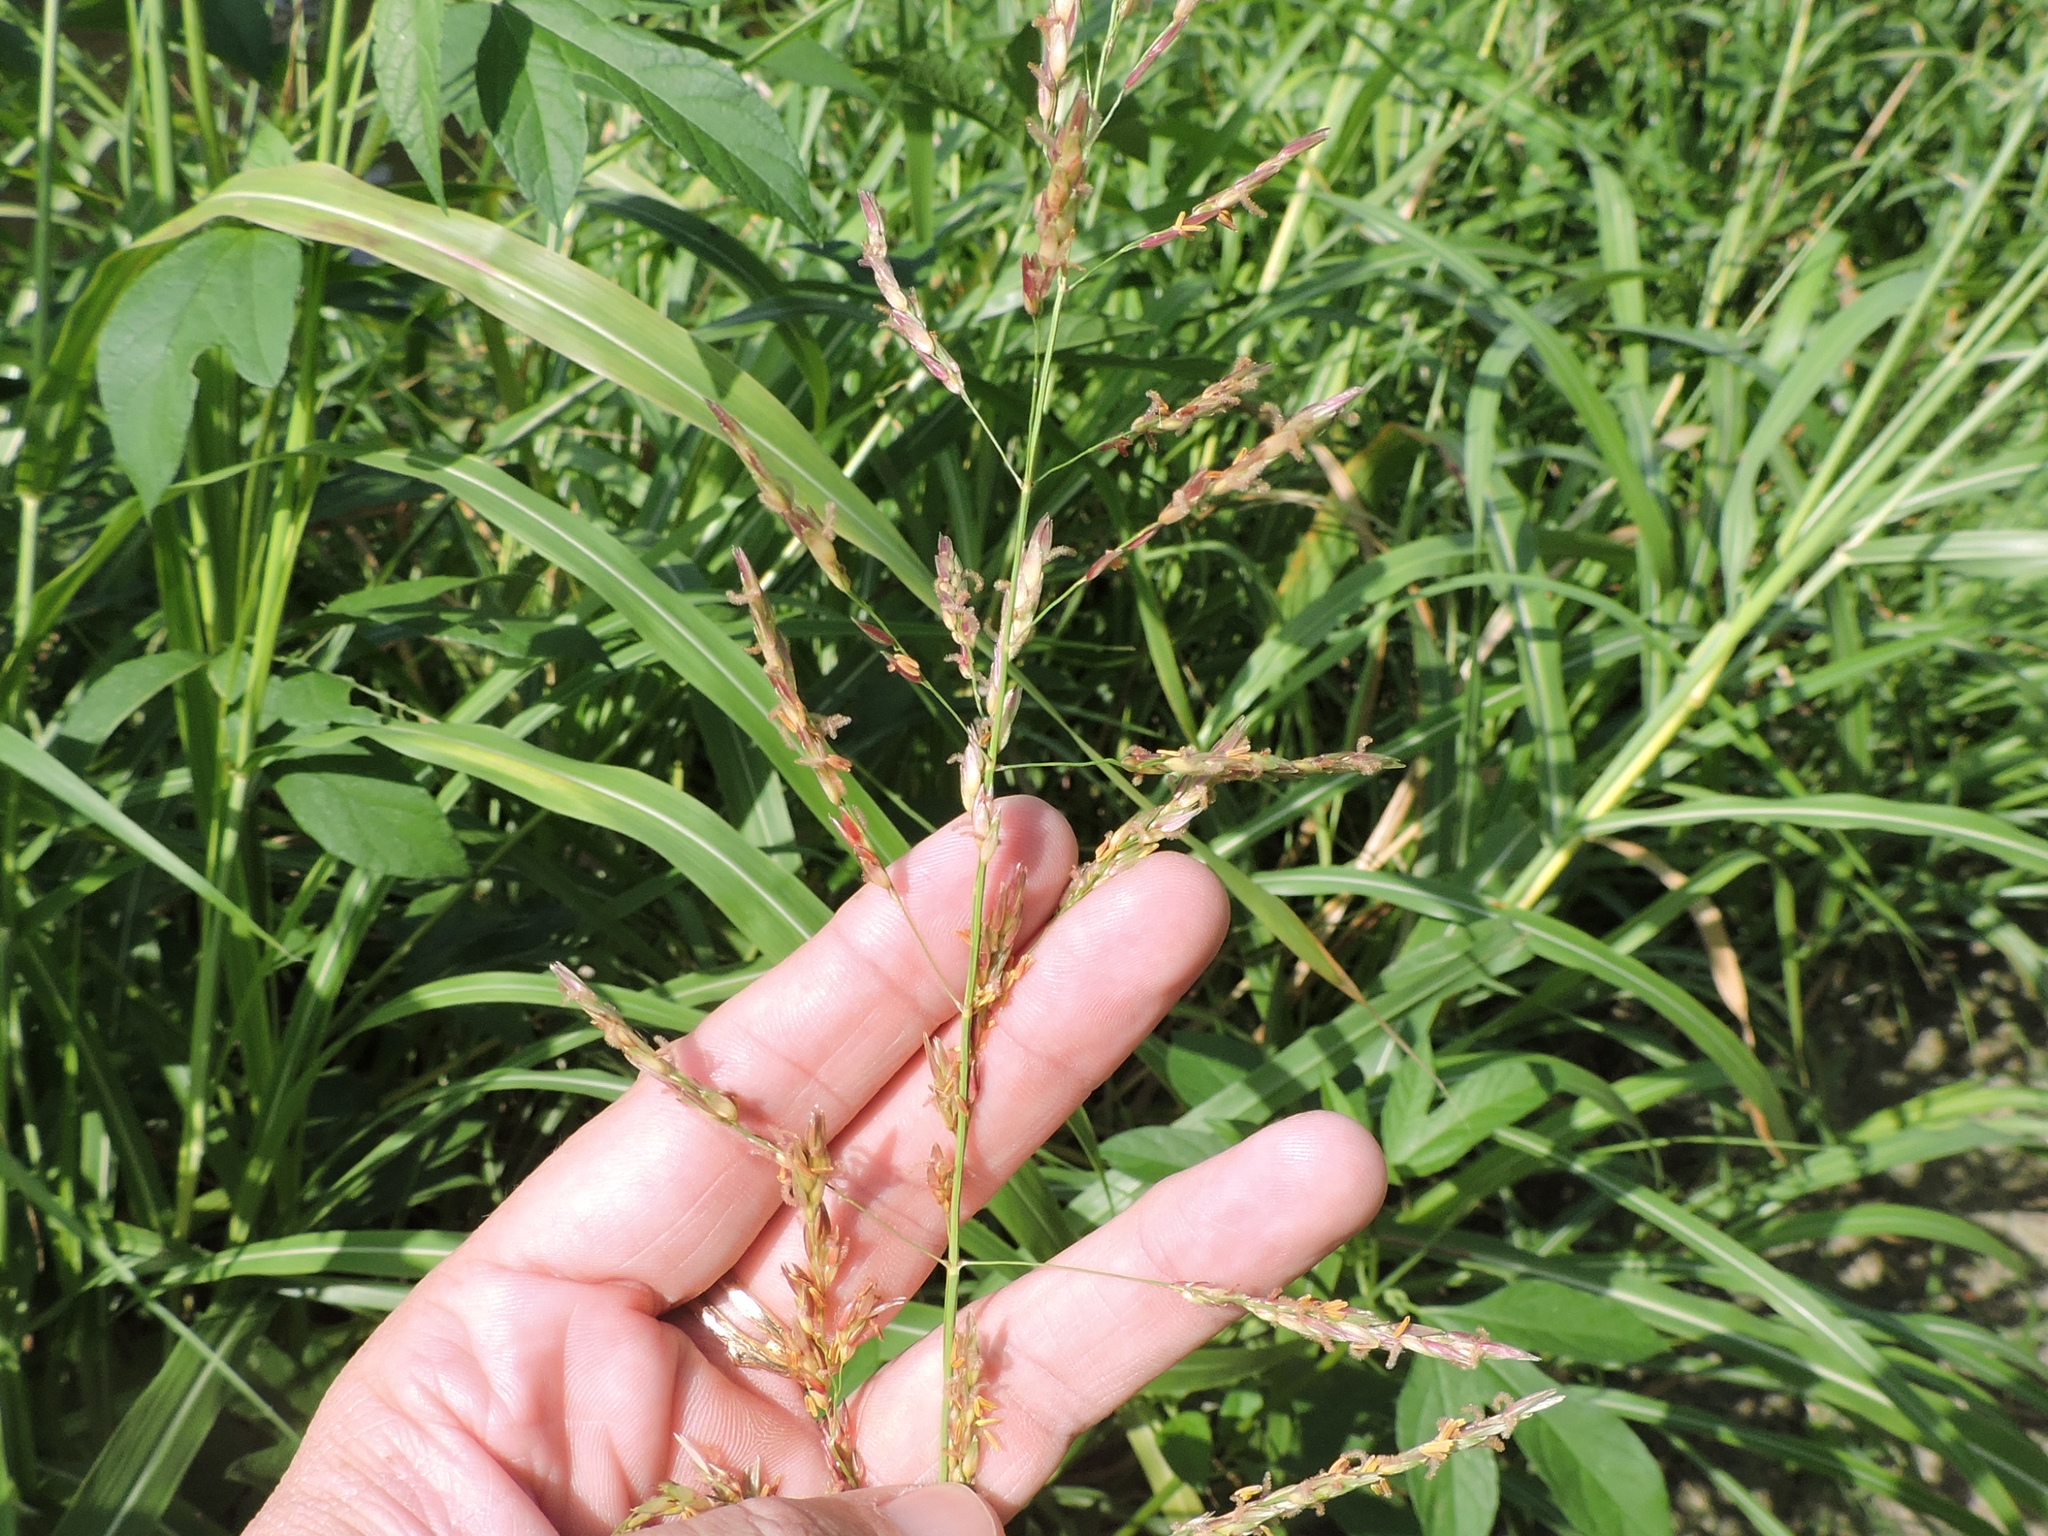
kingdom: Plantae
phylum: Tracheophyta
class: Liliopsida
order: Poales
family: Poaceae
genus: Sorghum
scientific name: Sorghum halepense
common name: Johnson-grass
